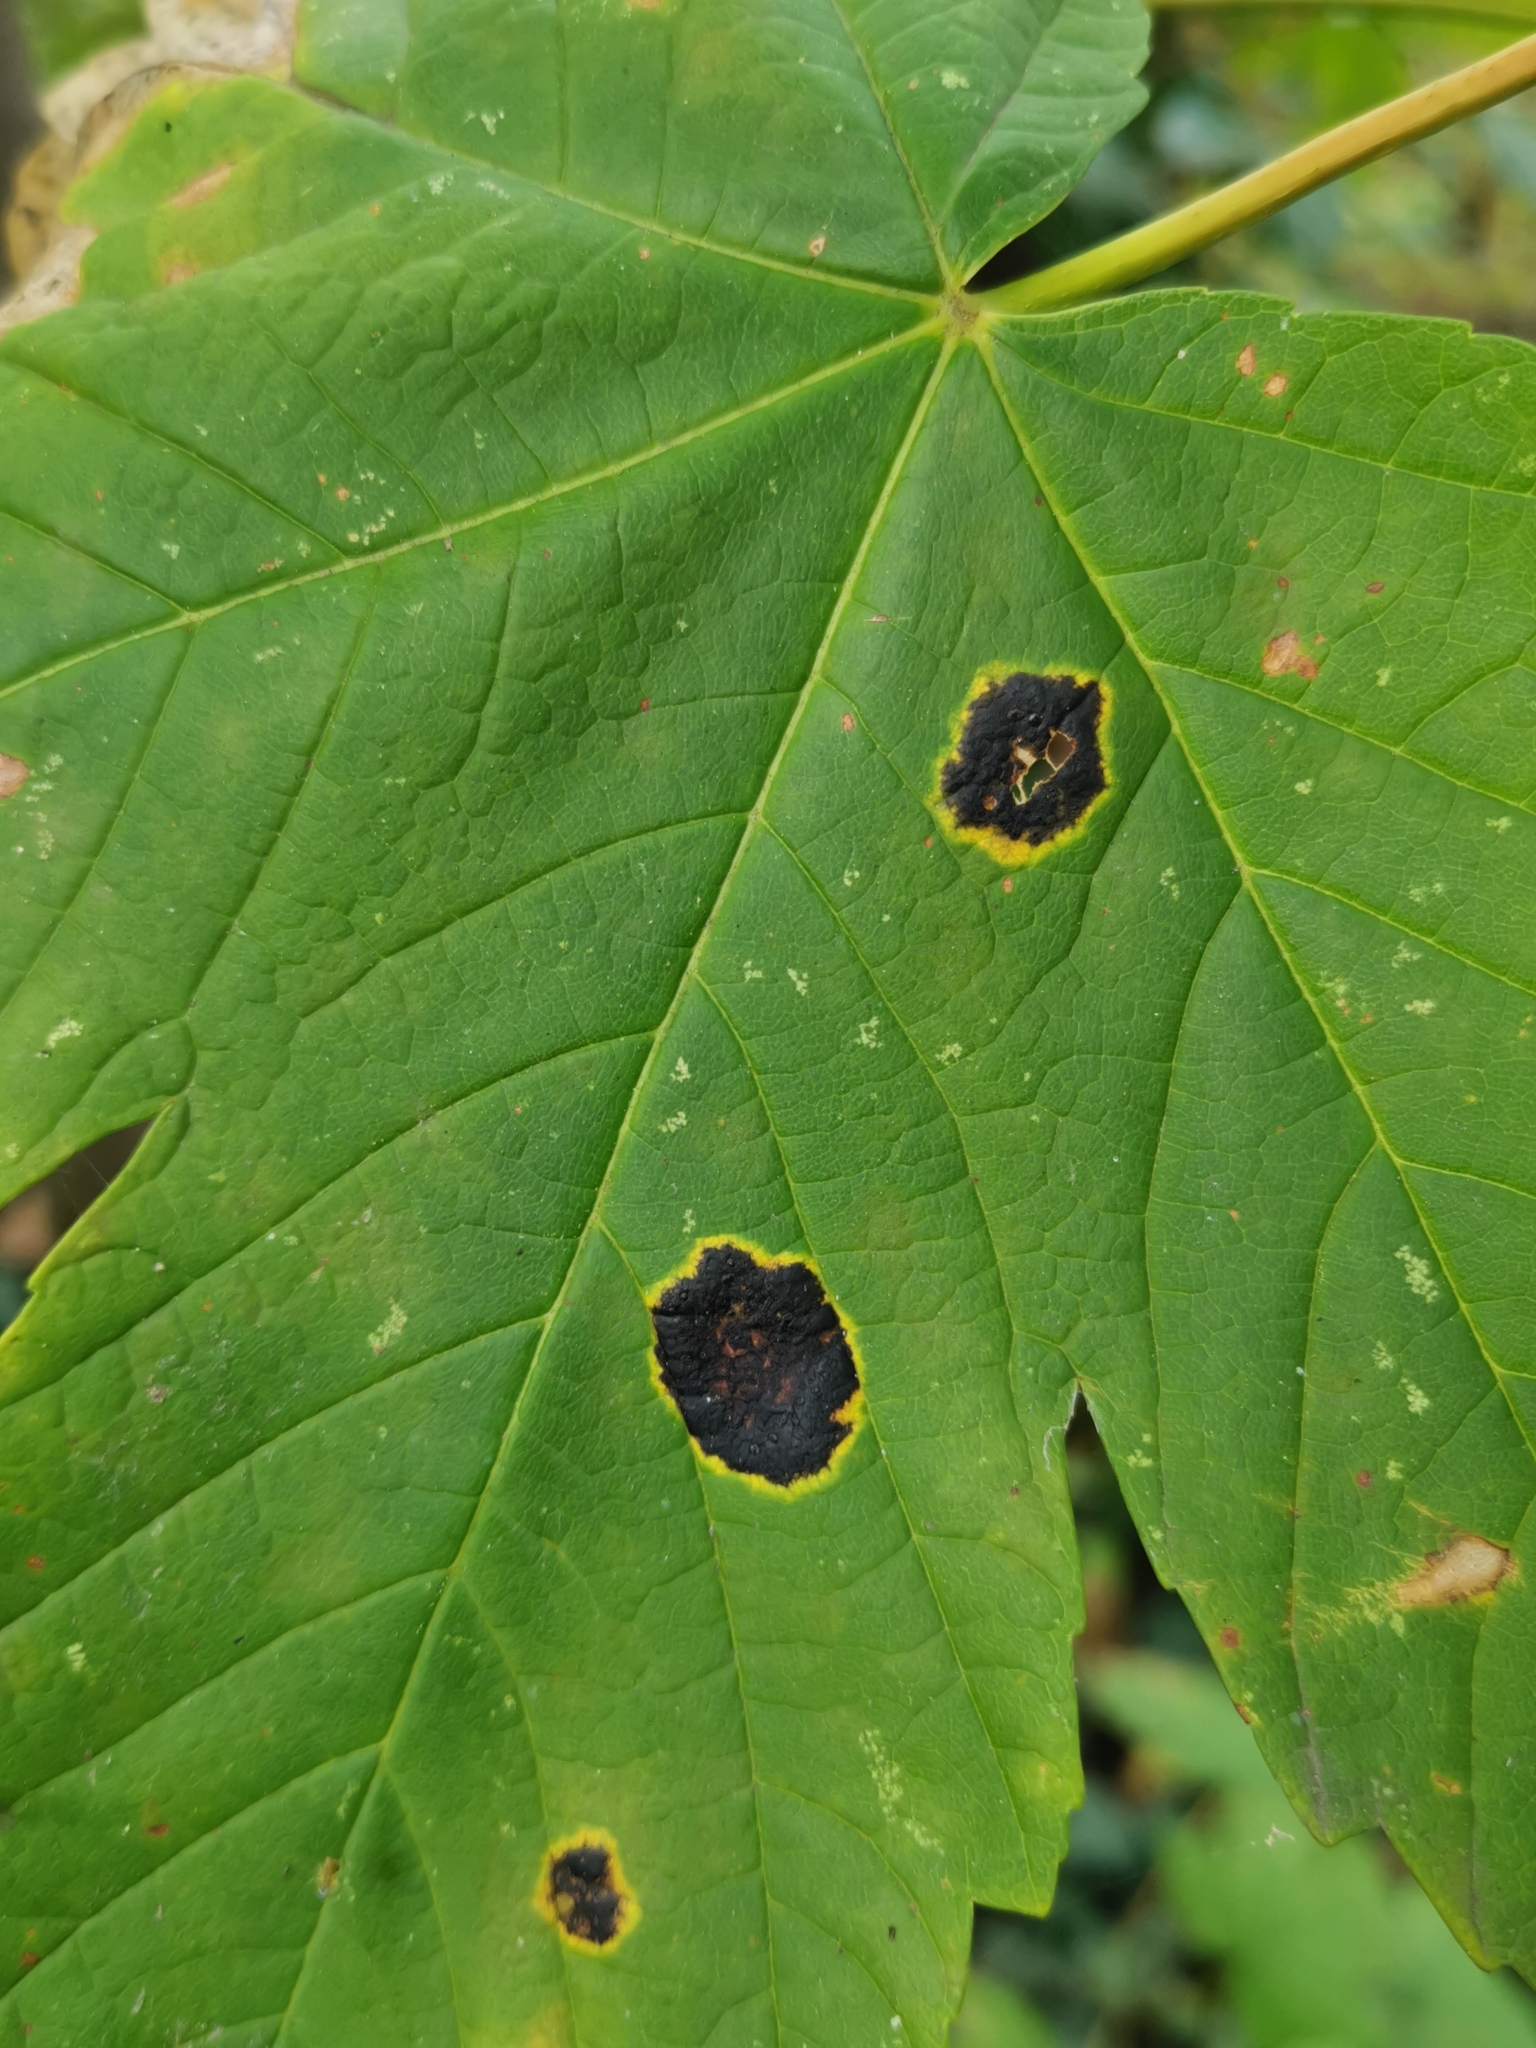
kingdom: Fungi
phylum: Ascomycota
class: Leotiomycetes
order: Rhytismatales
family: Rhytismataceae
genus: Rhytisma
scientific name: Rhytisma acerinum
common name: European tar spot
